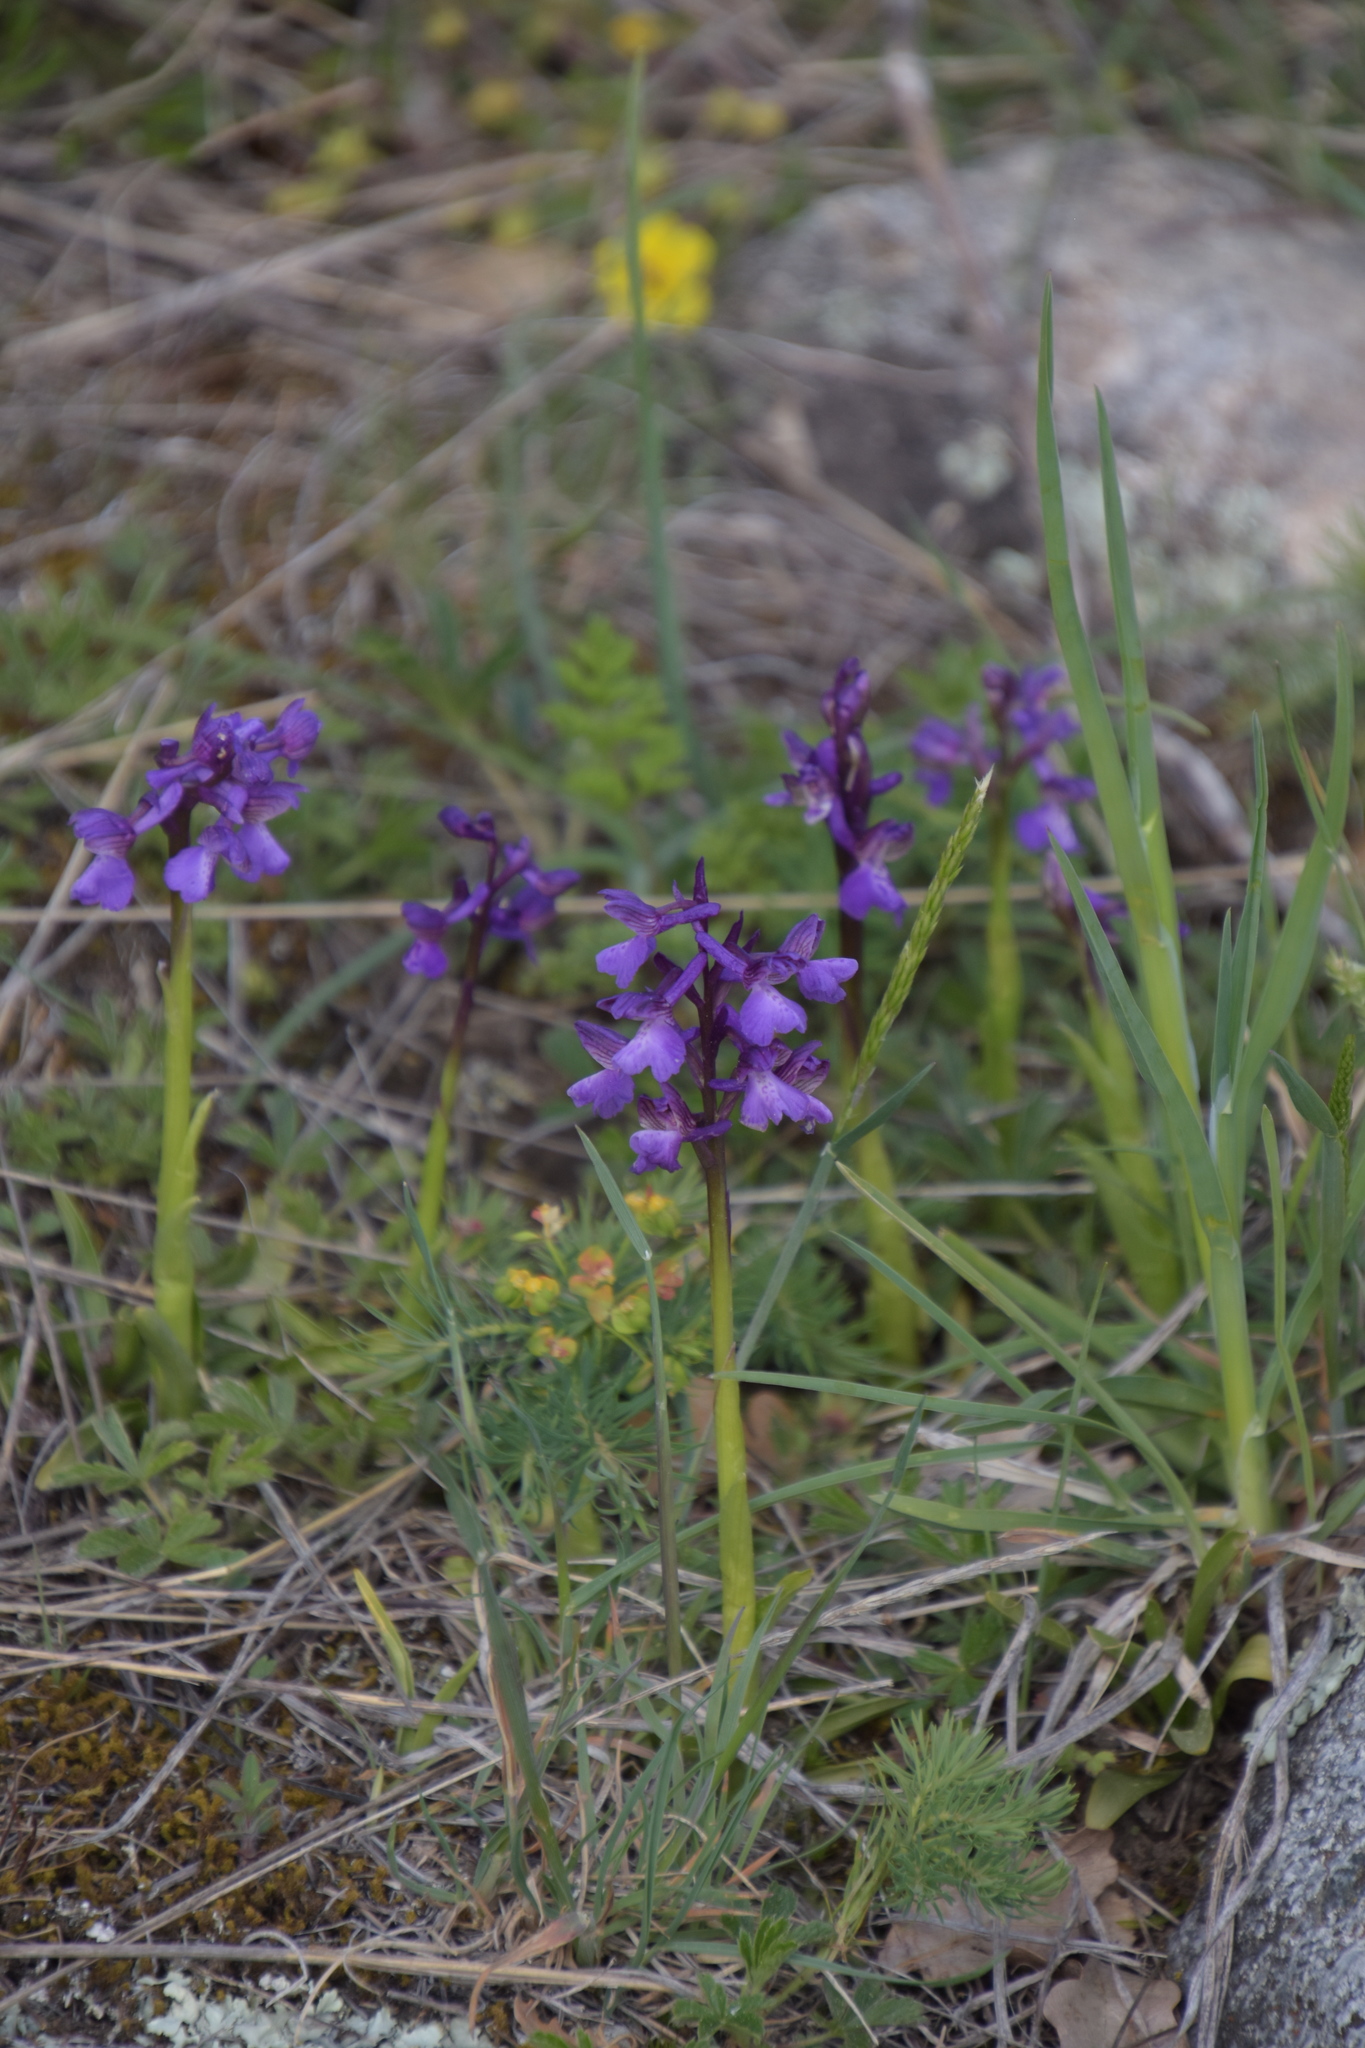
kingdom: Plantae
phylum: Tracheophyta
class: Liliopsida
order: Asparagales
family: Orchidaceae
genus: Anacamptis
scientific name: Anacamptis morio
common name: Green-winged orchid
